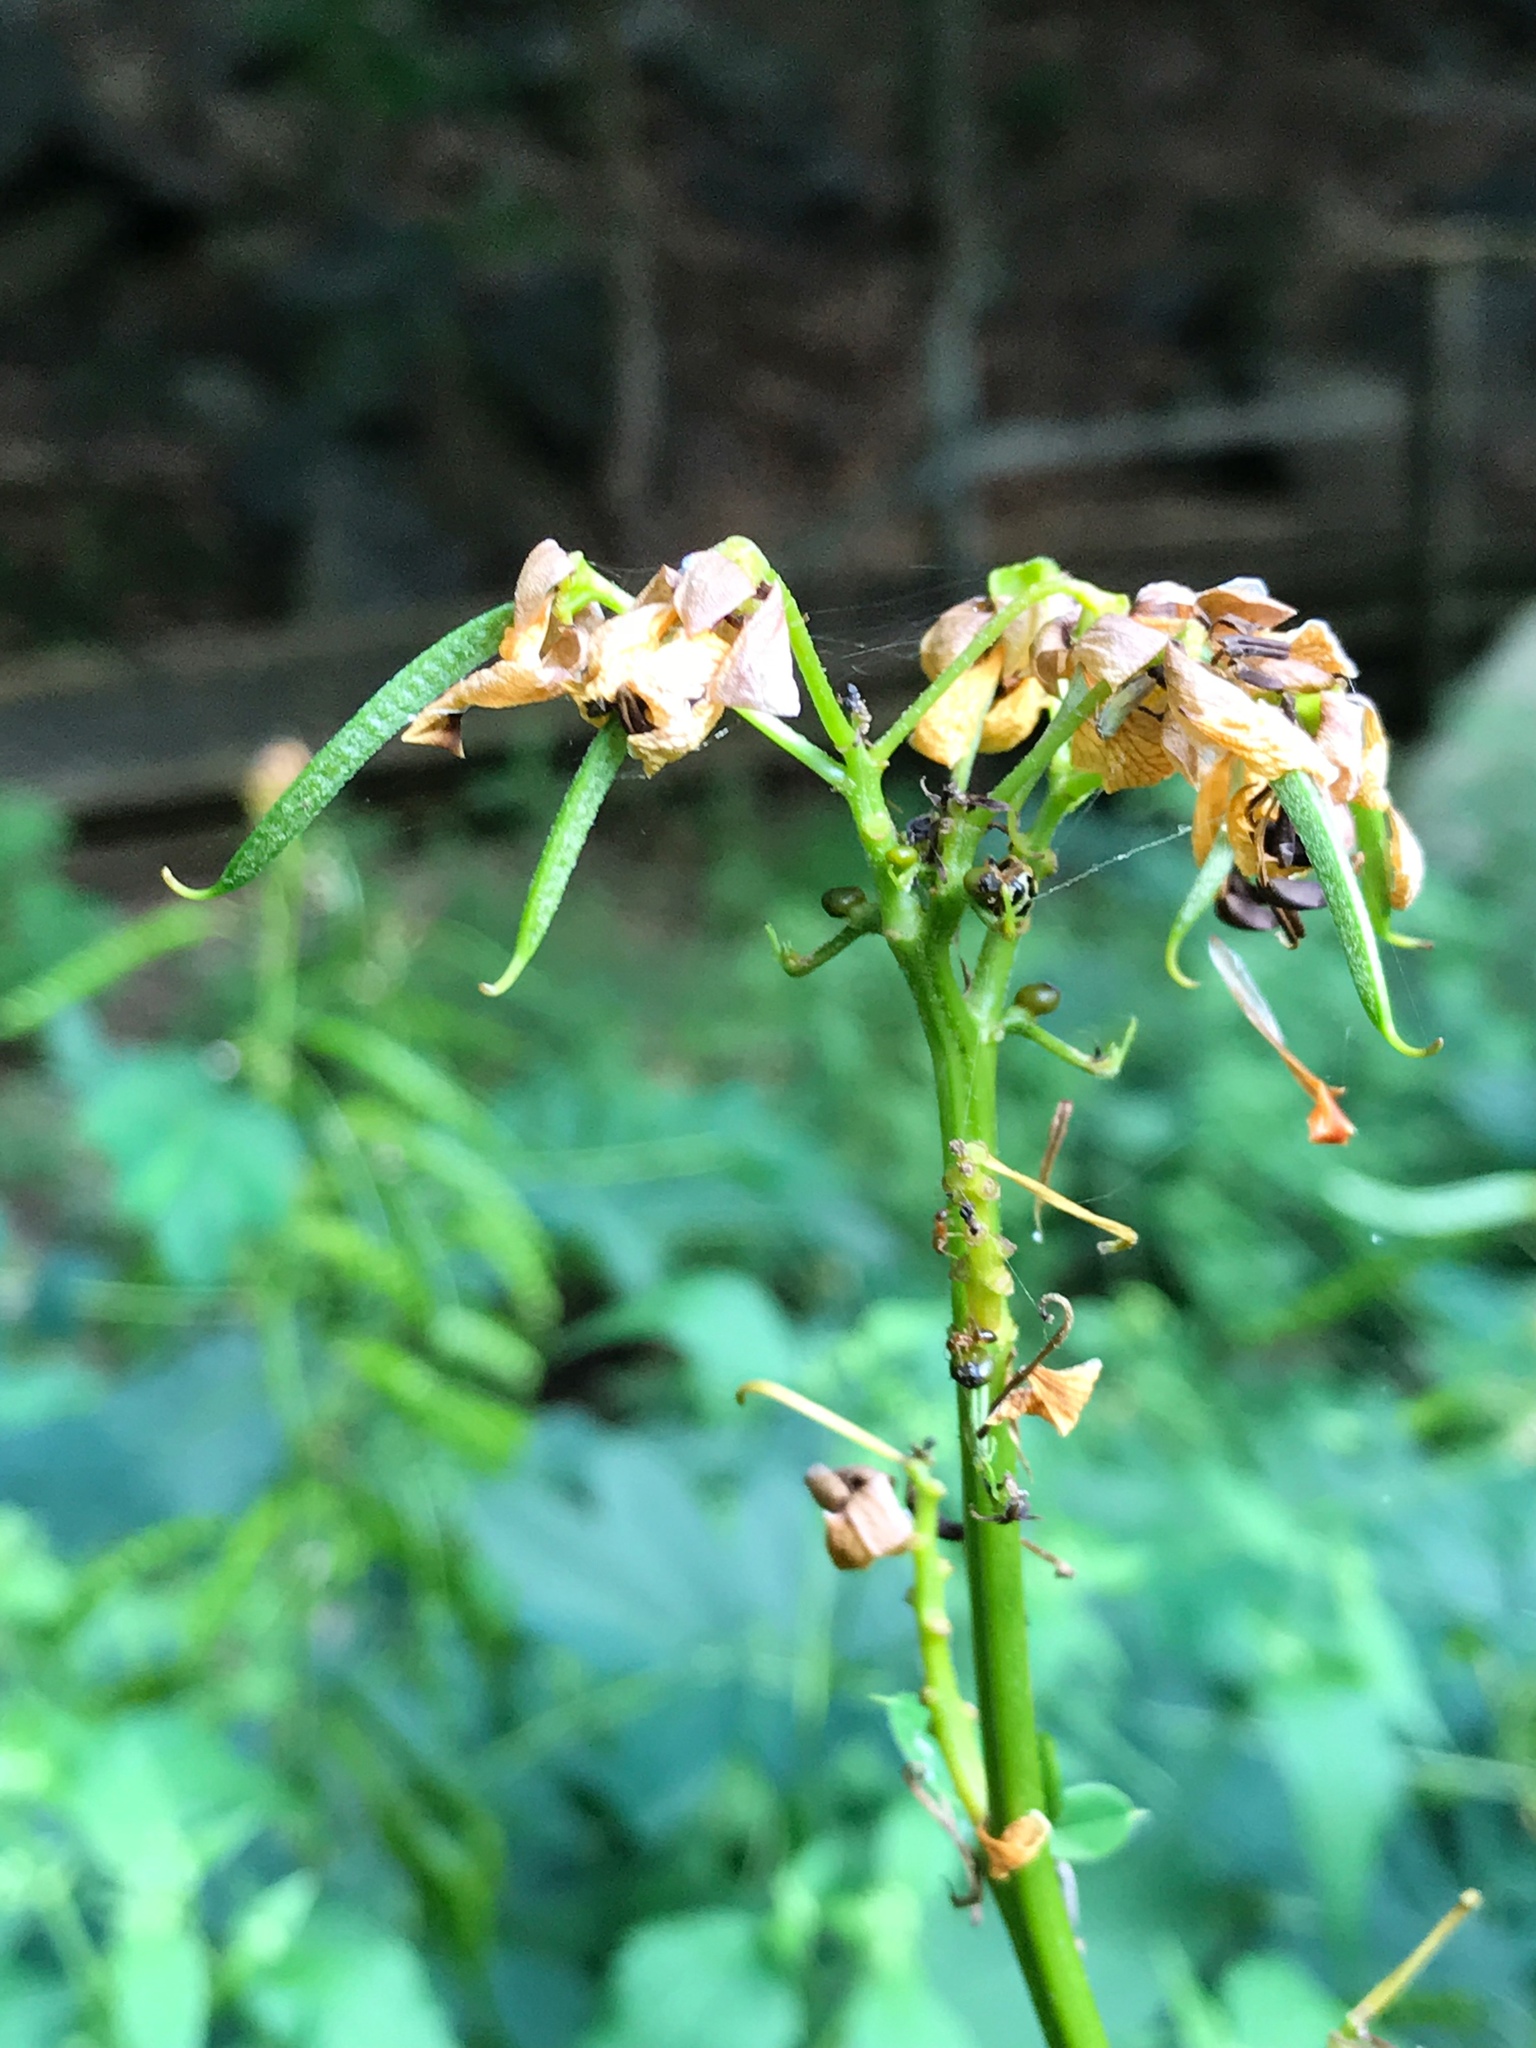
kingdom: Plantae
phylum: Tracheophyta
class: Magnoliopsida
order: Fabales
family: Fabaceae
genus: Senna
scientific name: Senna marilandica
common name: American senna
